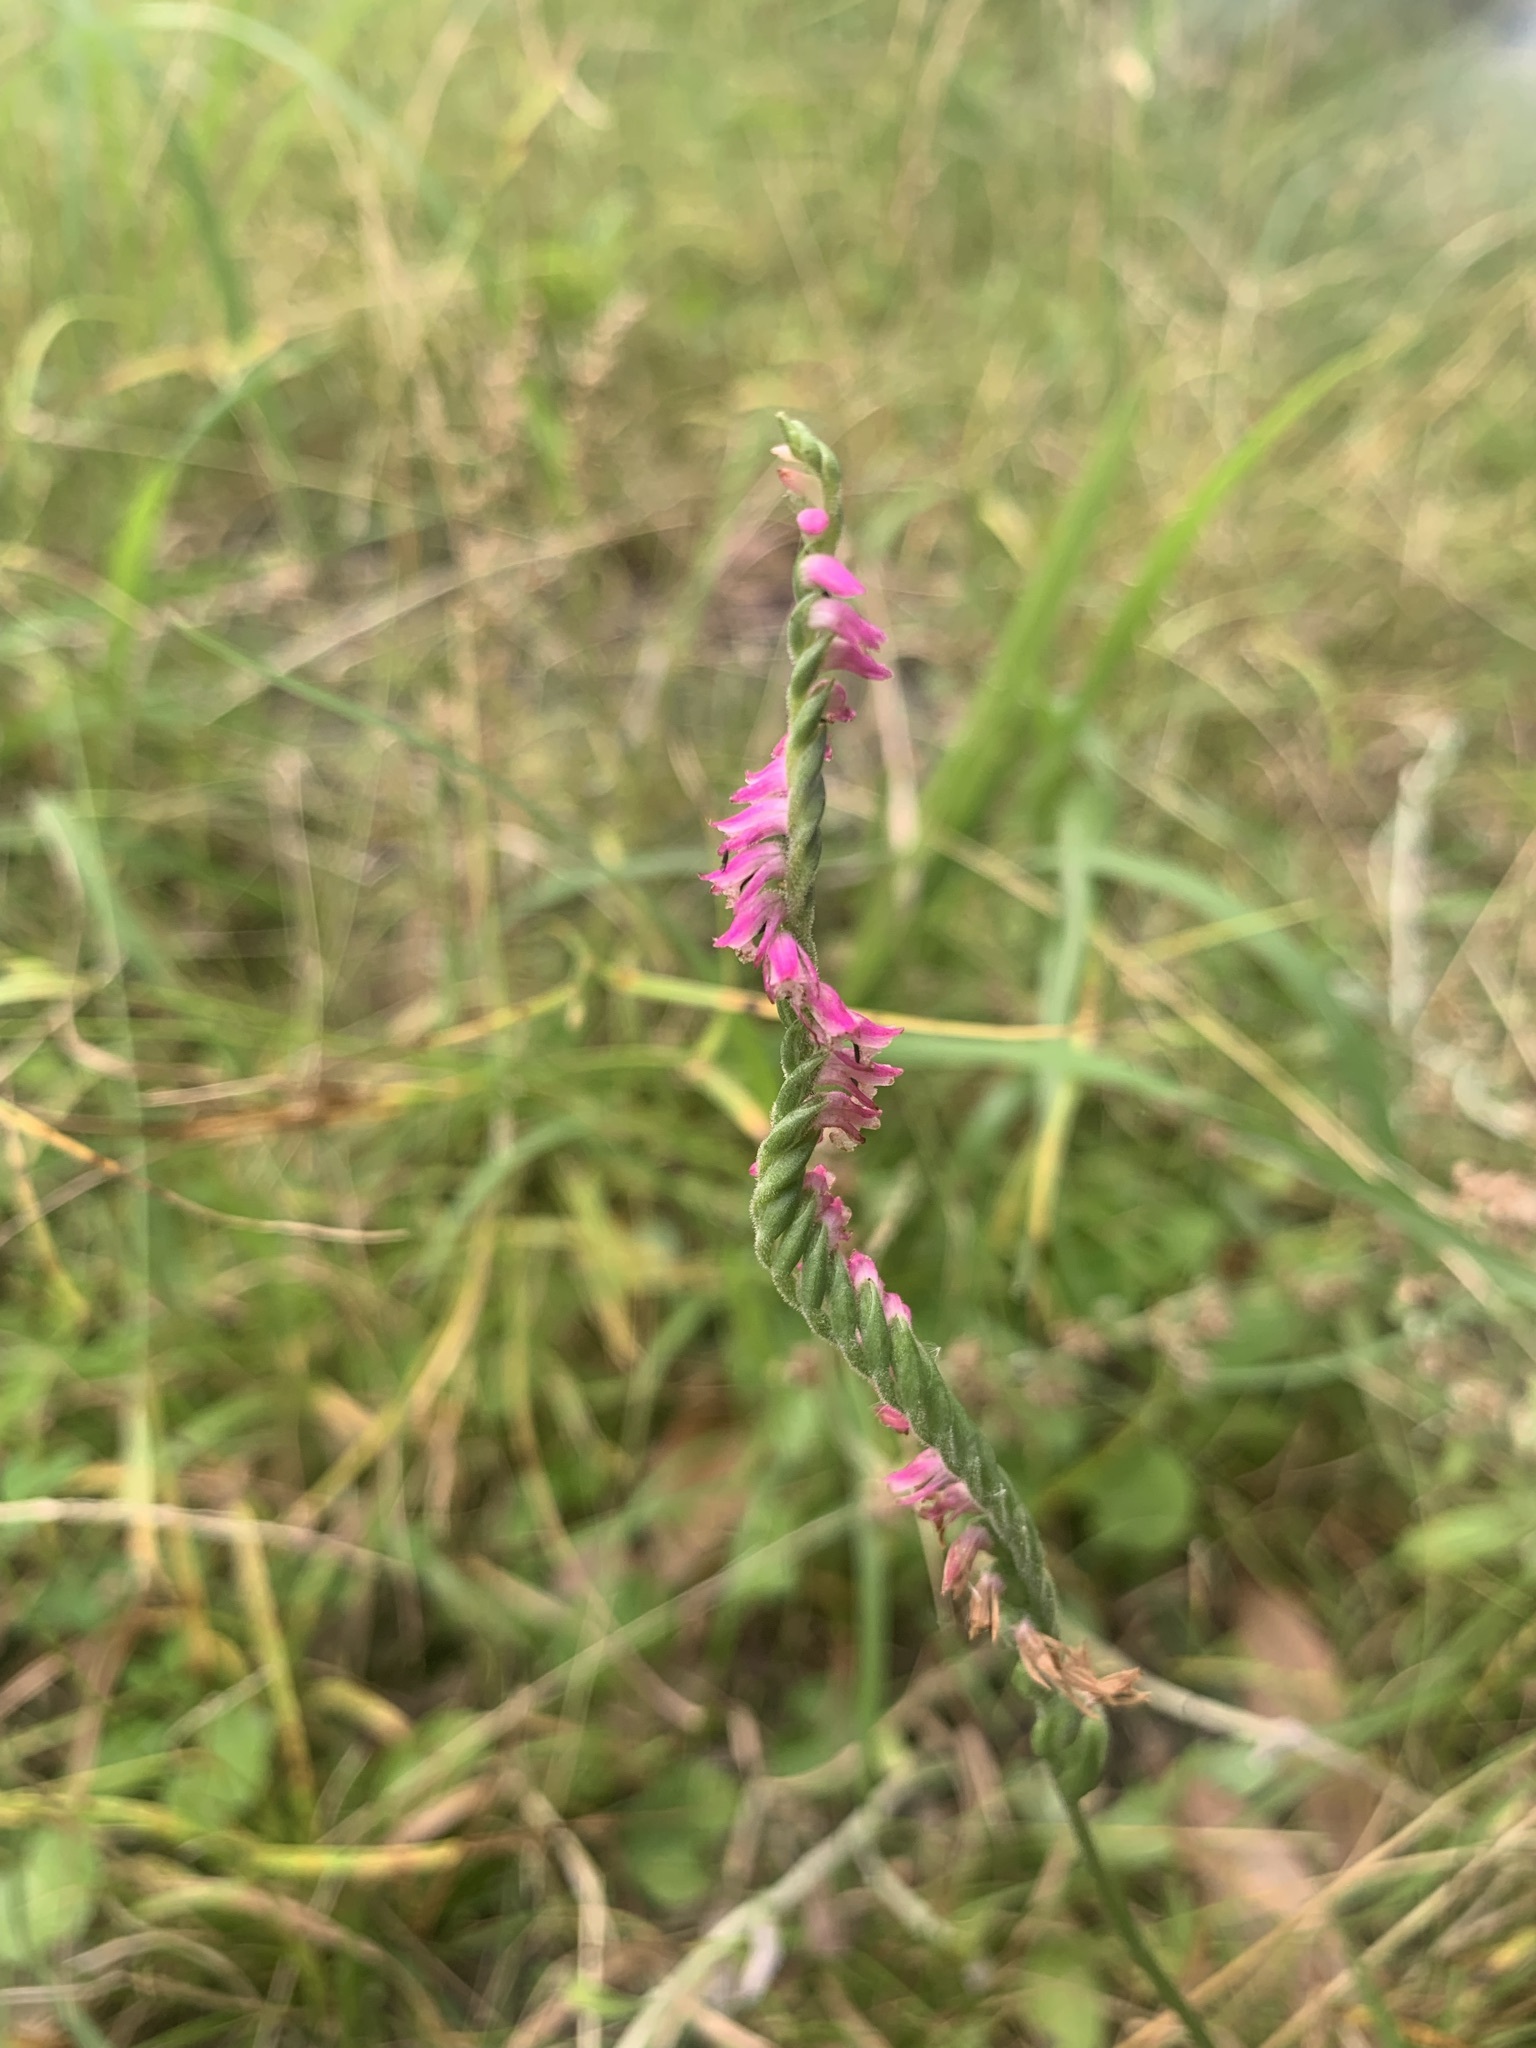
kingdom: Plantae
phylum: Tracheophyta
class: Liliopsida
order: Asparagales
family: Orchidaceae
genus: Spiranthes
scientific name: Spiranthes australis
